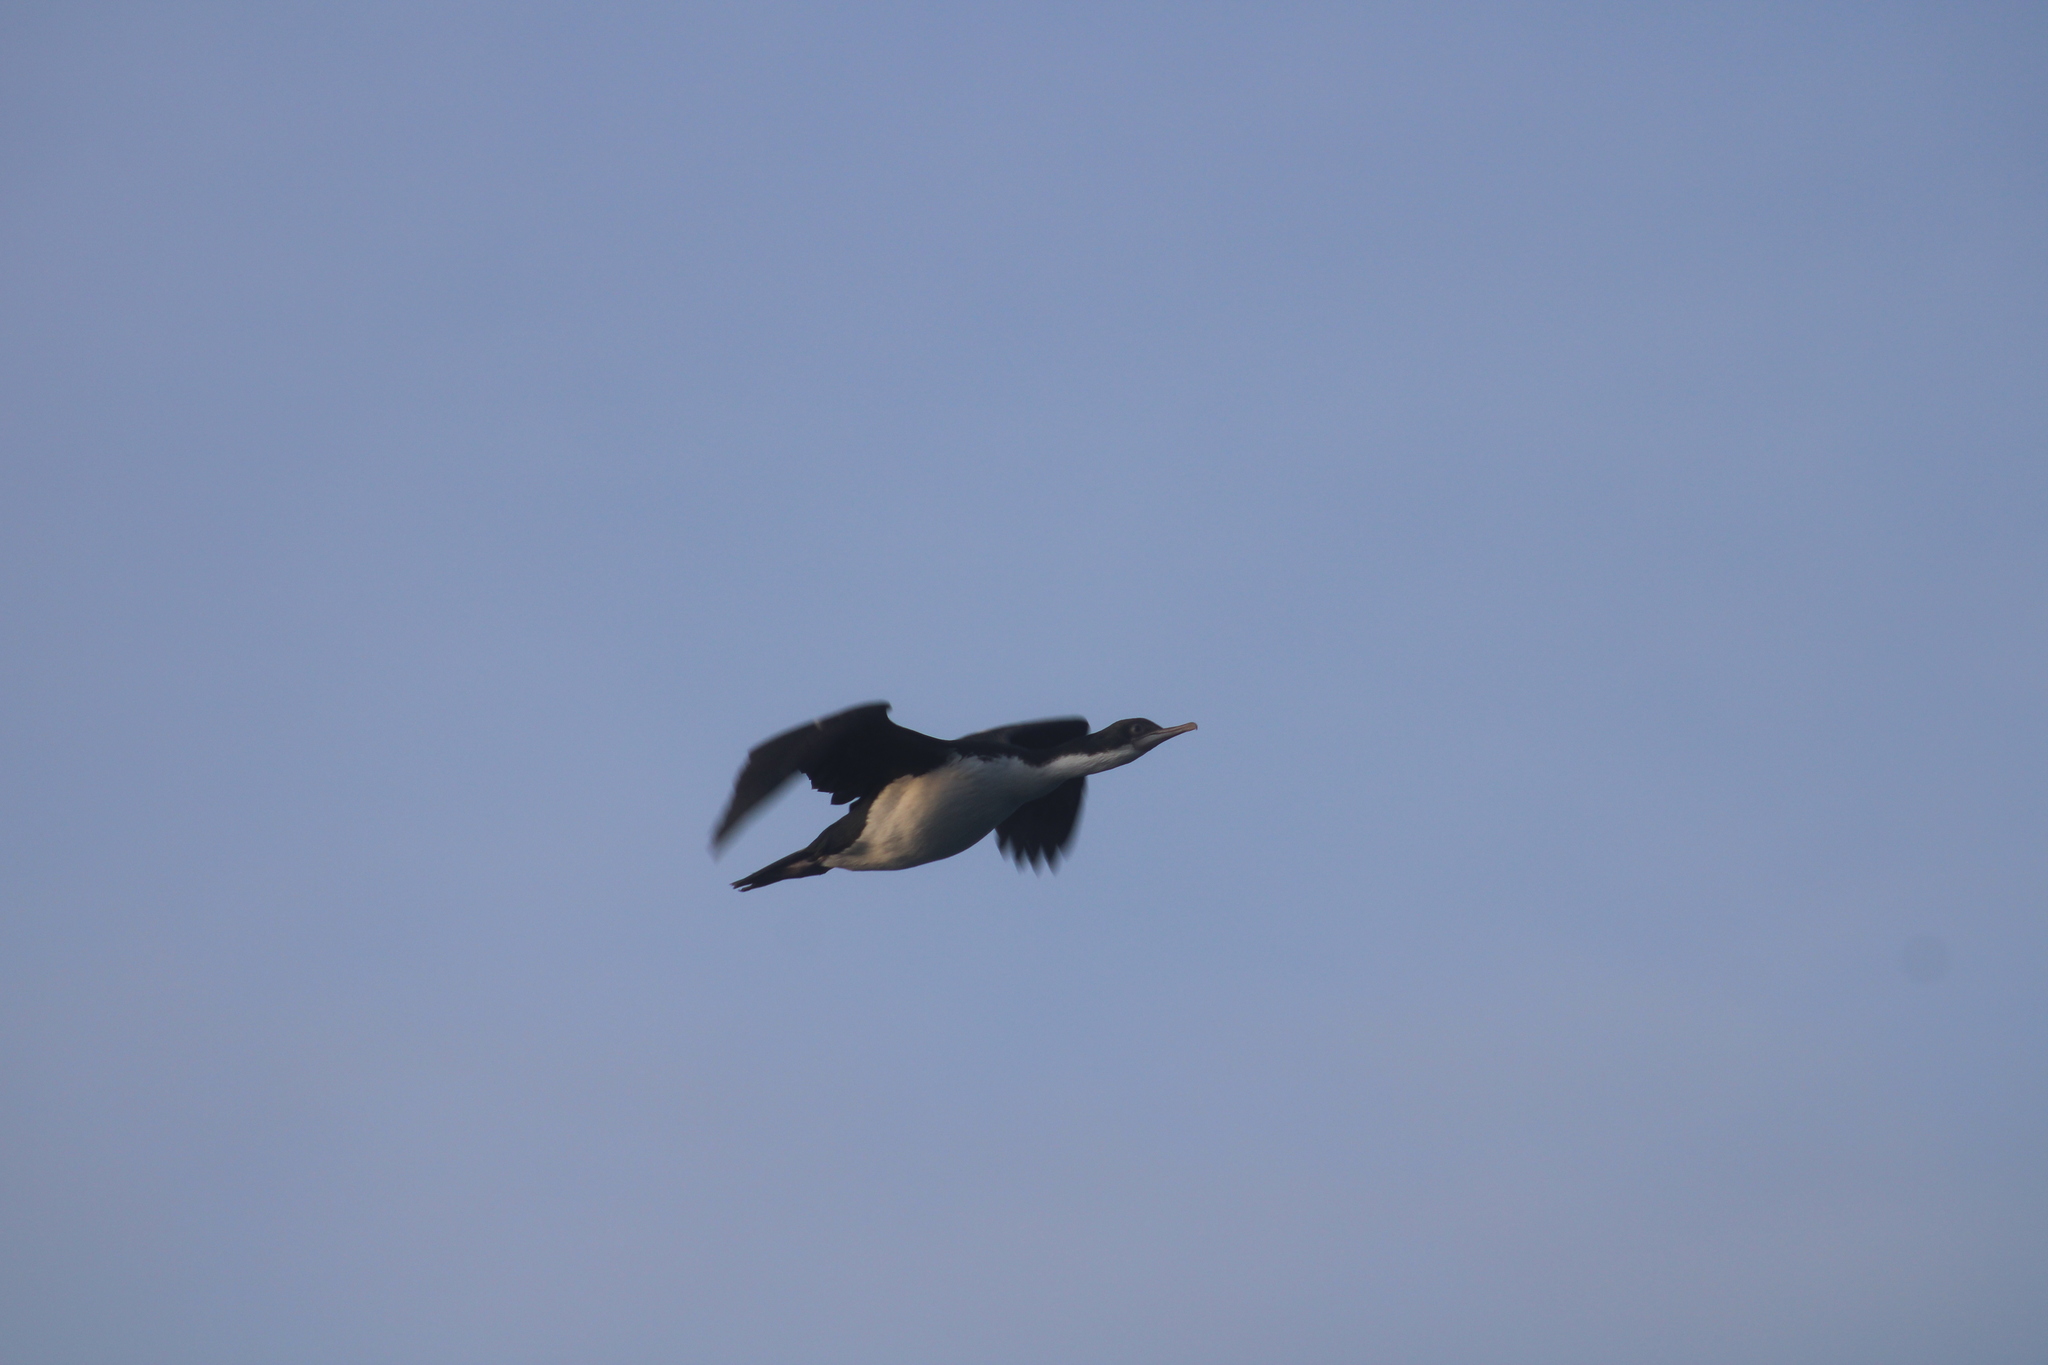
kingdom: Animalia
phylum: Chordata
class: Aves
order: Suliformes
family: Phalacrocoracidae
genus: Leucocarbo
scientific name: Leucocarbo atriceps
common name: Imperial shag
